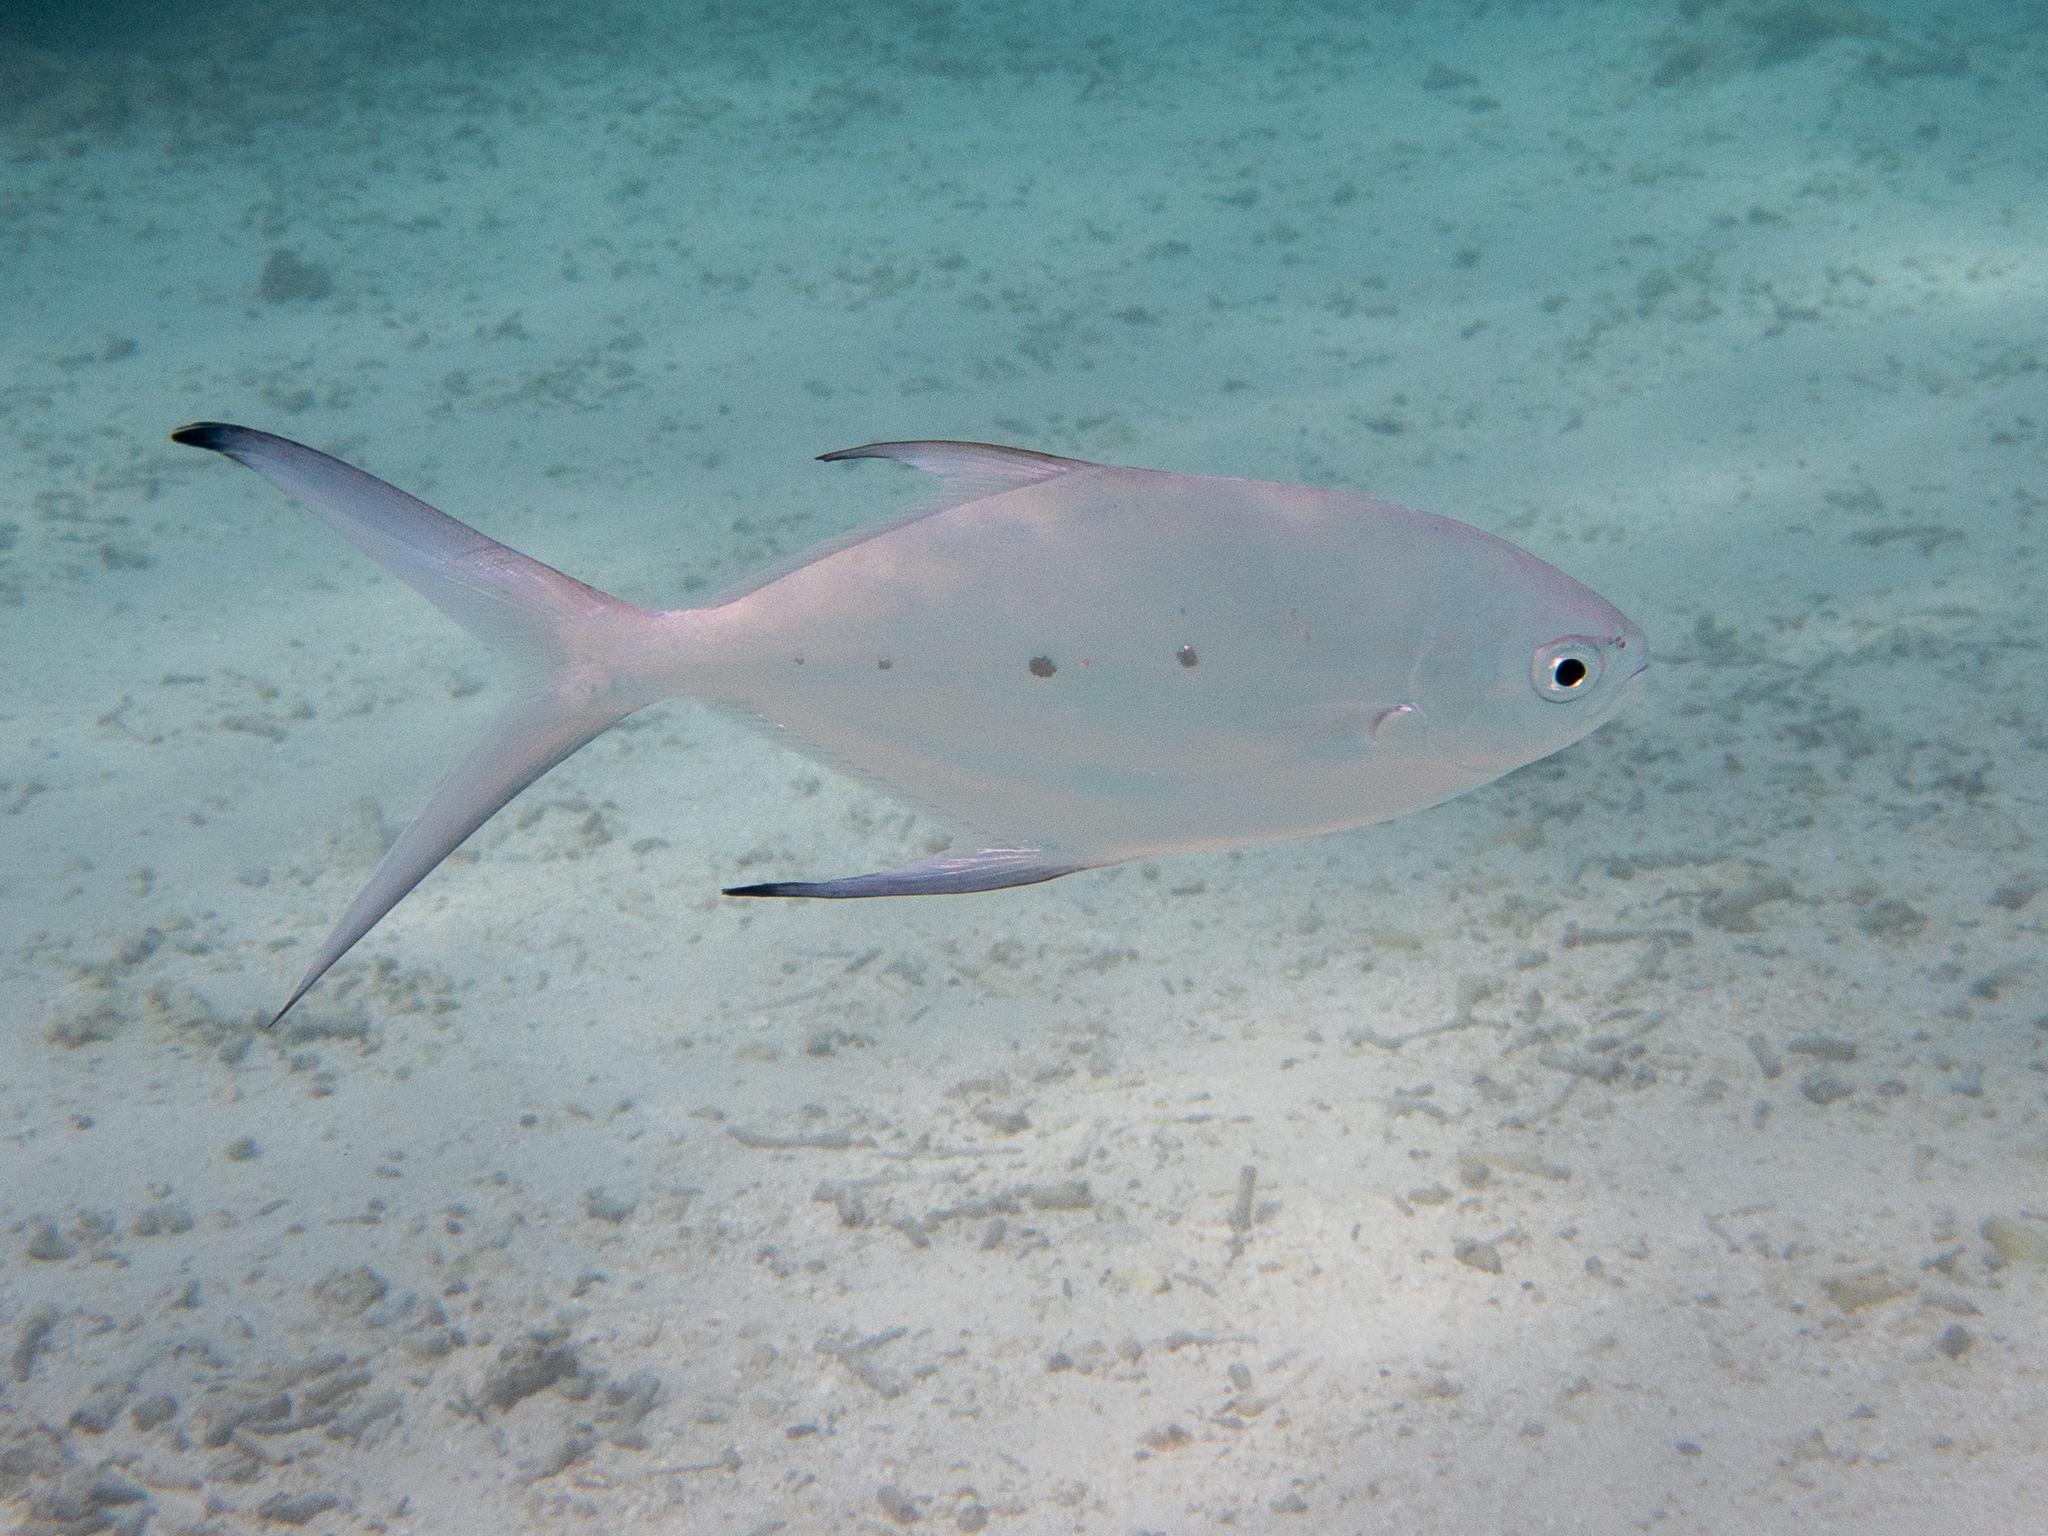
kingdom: Animalia
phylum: Chordata
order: Perciformes
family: Carangidae
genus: Trachinotus
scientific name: Trachinotus baillonii
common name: Smallspotted dart
